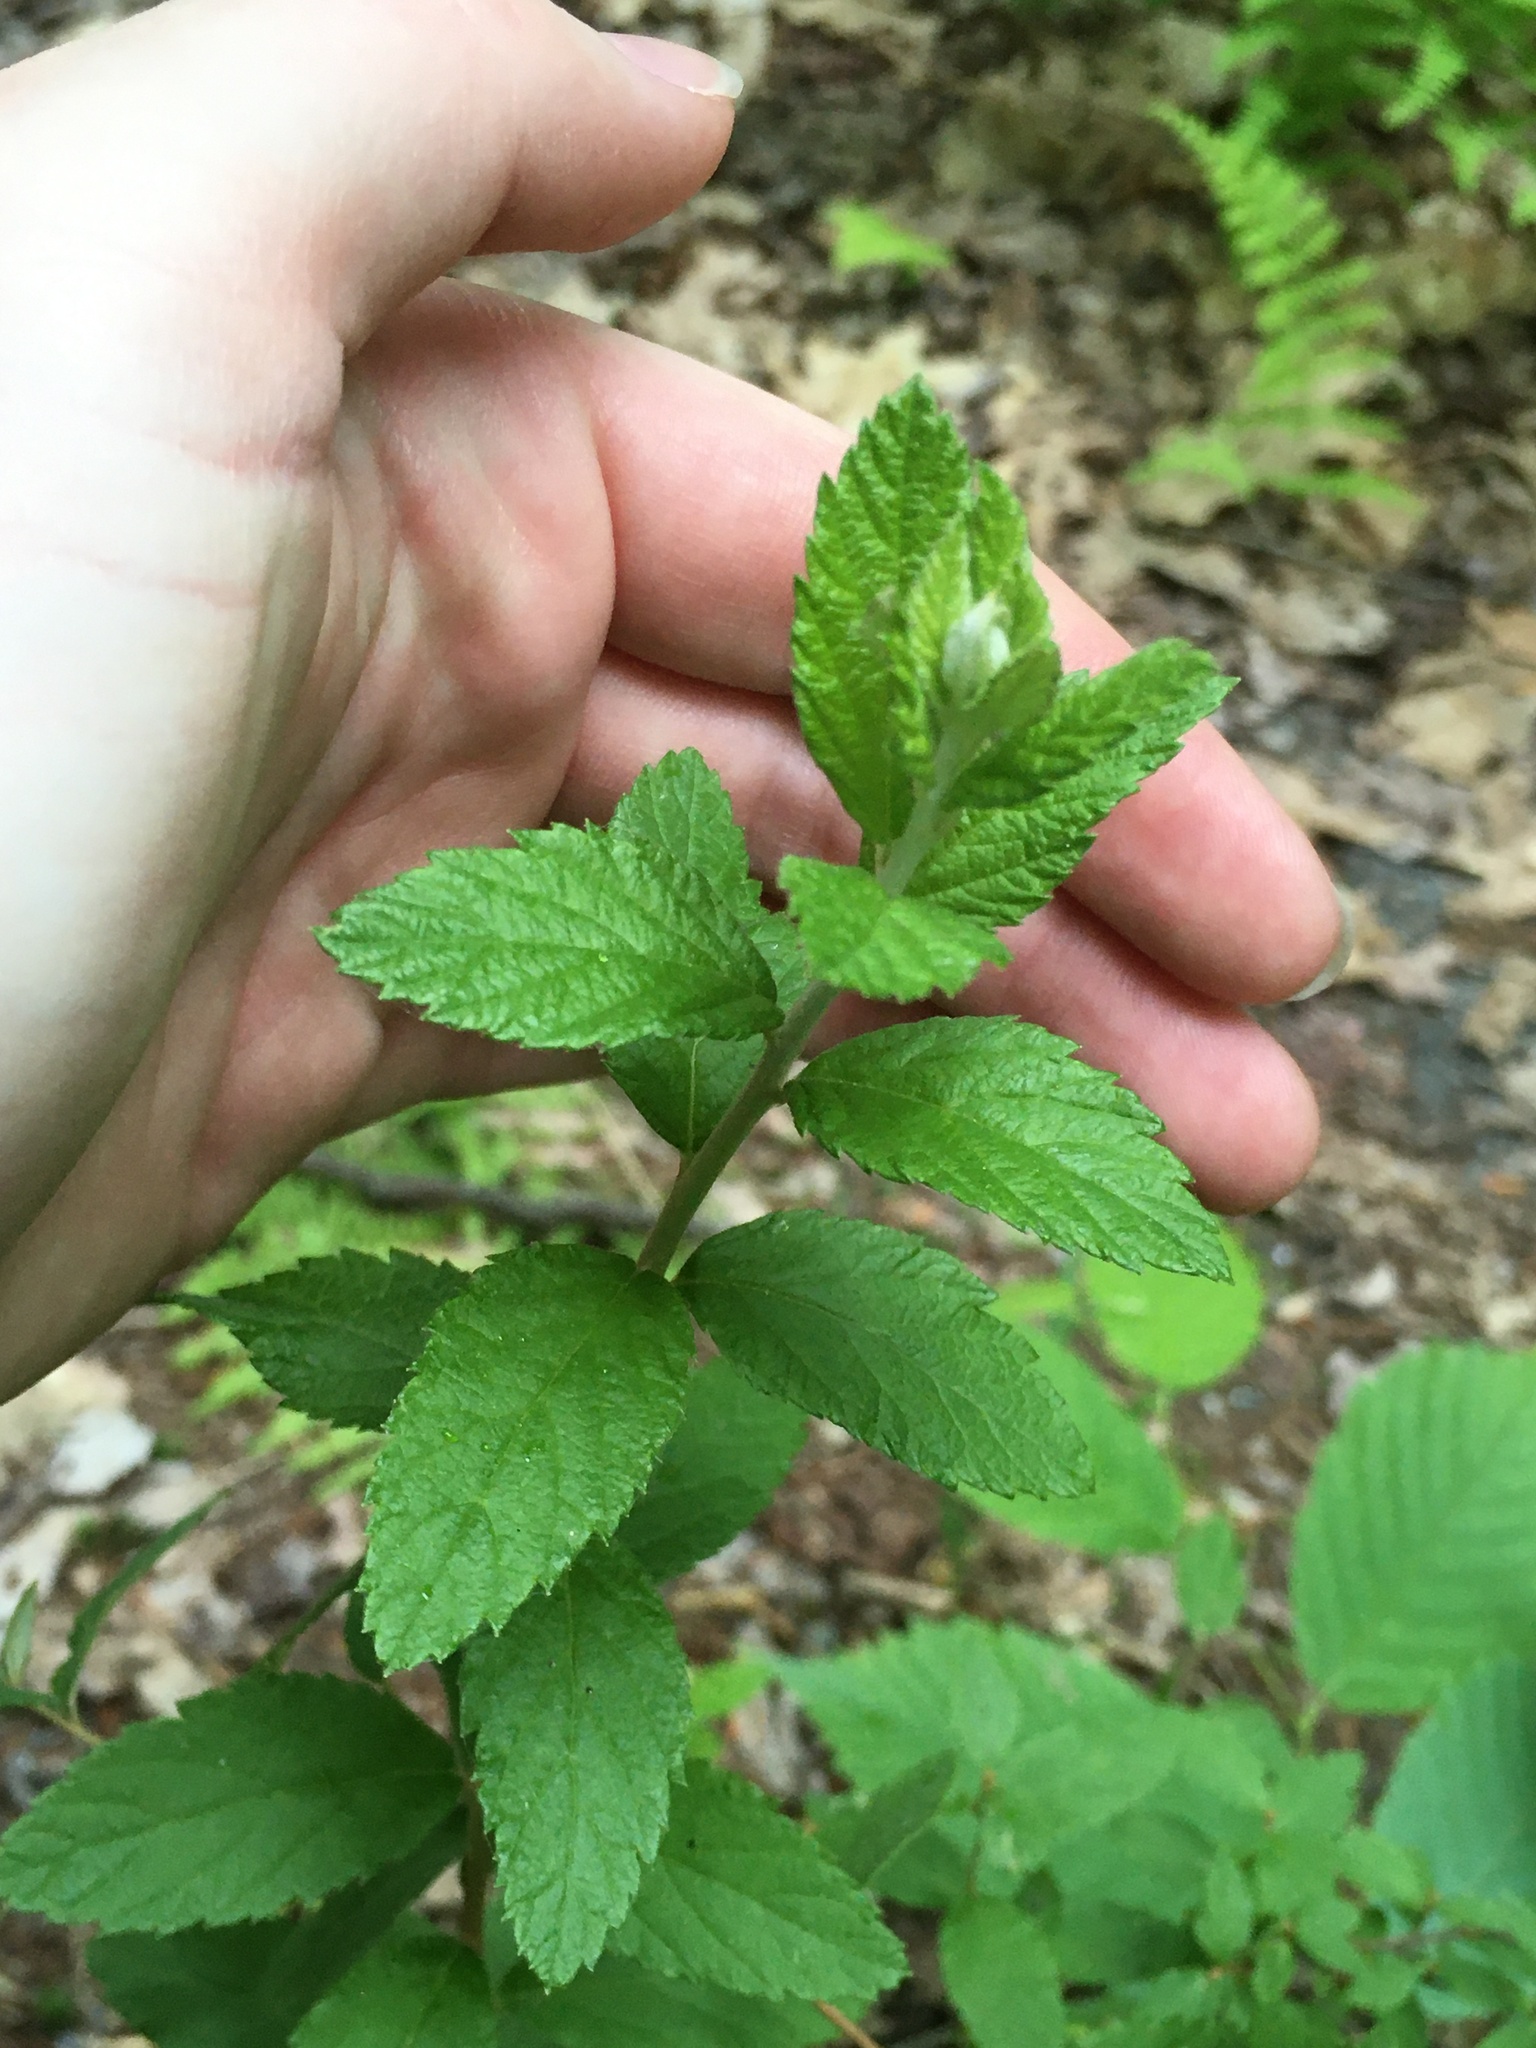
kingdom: Plantae
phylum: Tracheophyta
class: Magnoliopsida
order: Rosales
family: Rosaceae
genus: Spiraea
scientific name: Spiraea tomentosa
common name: Hardhack
